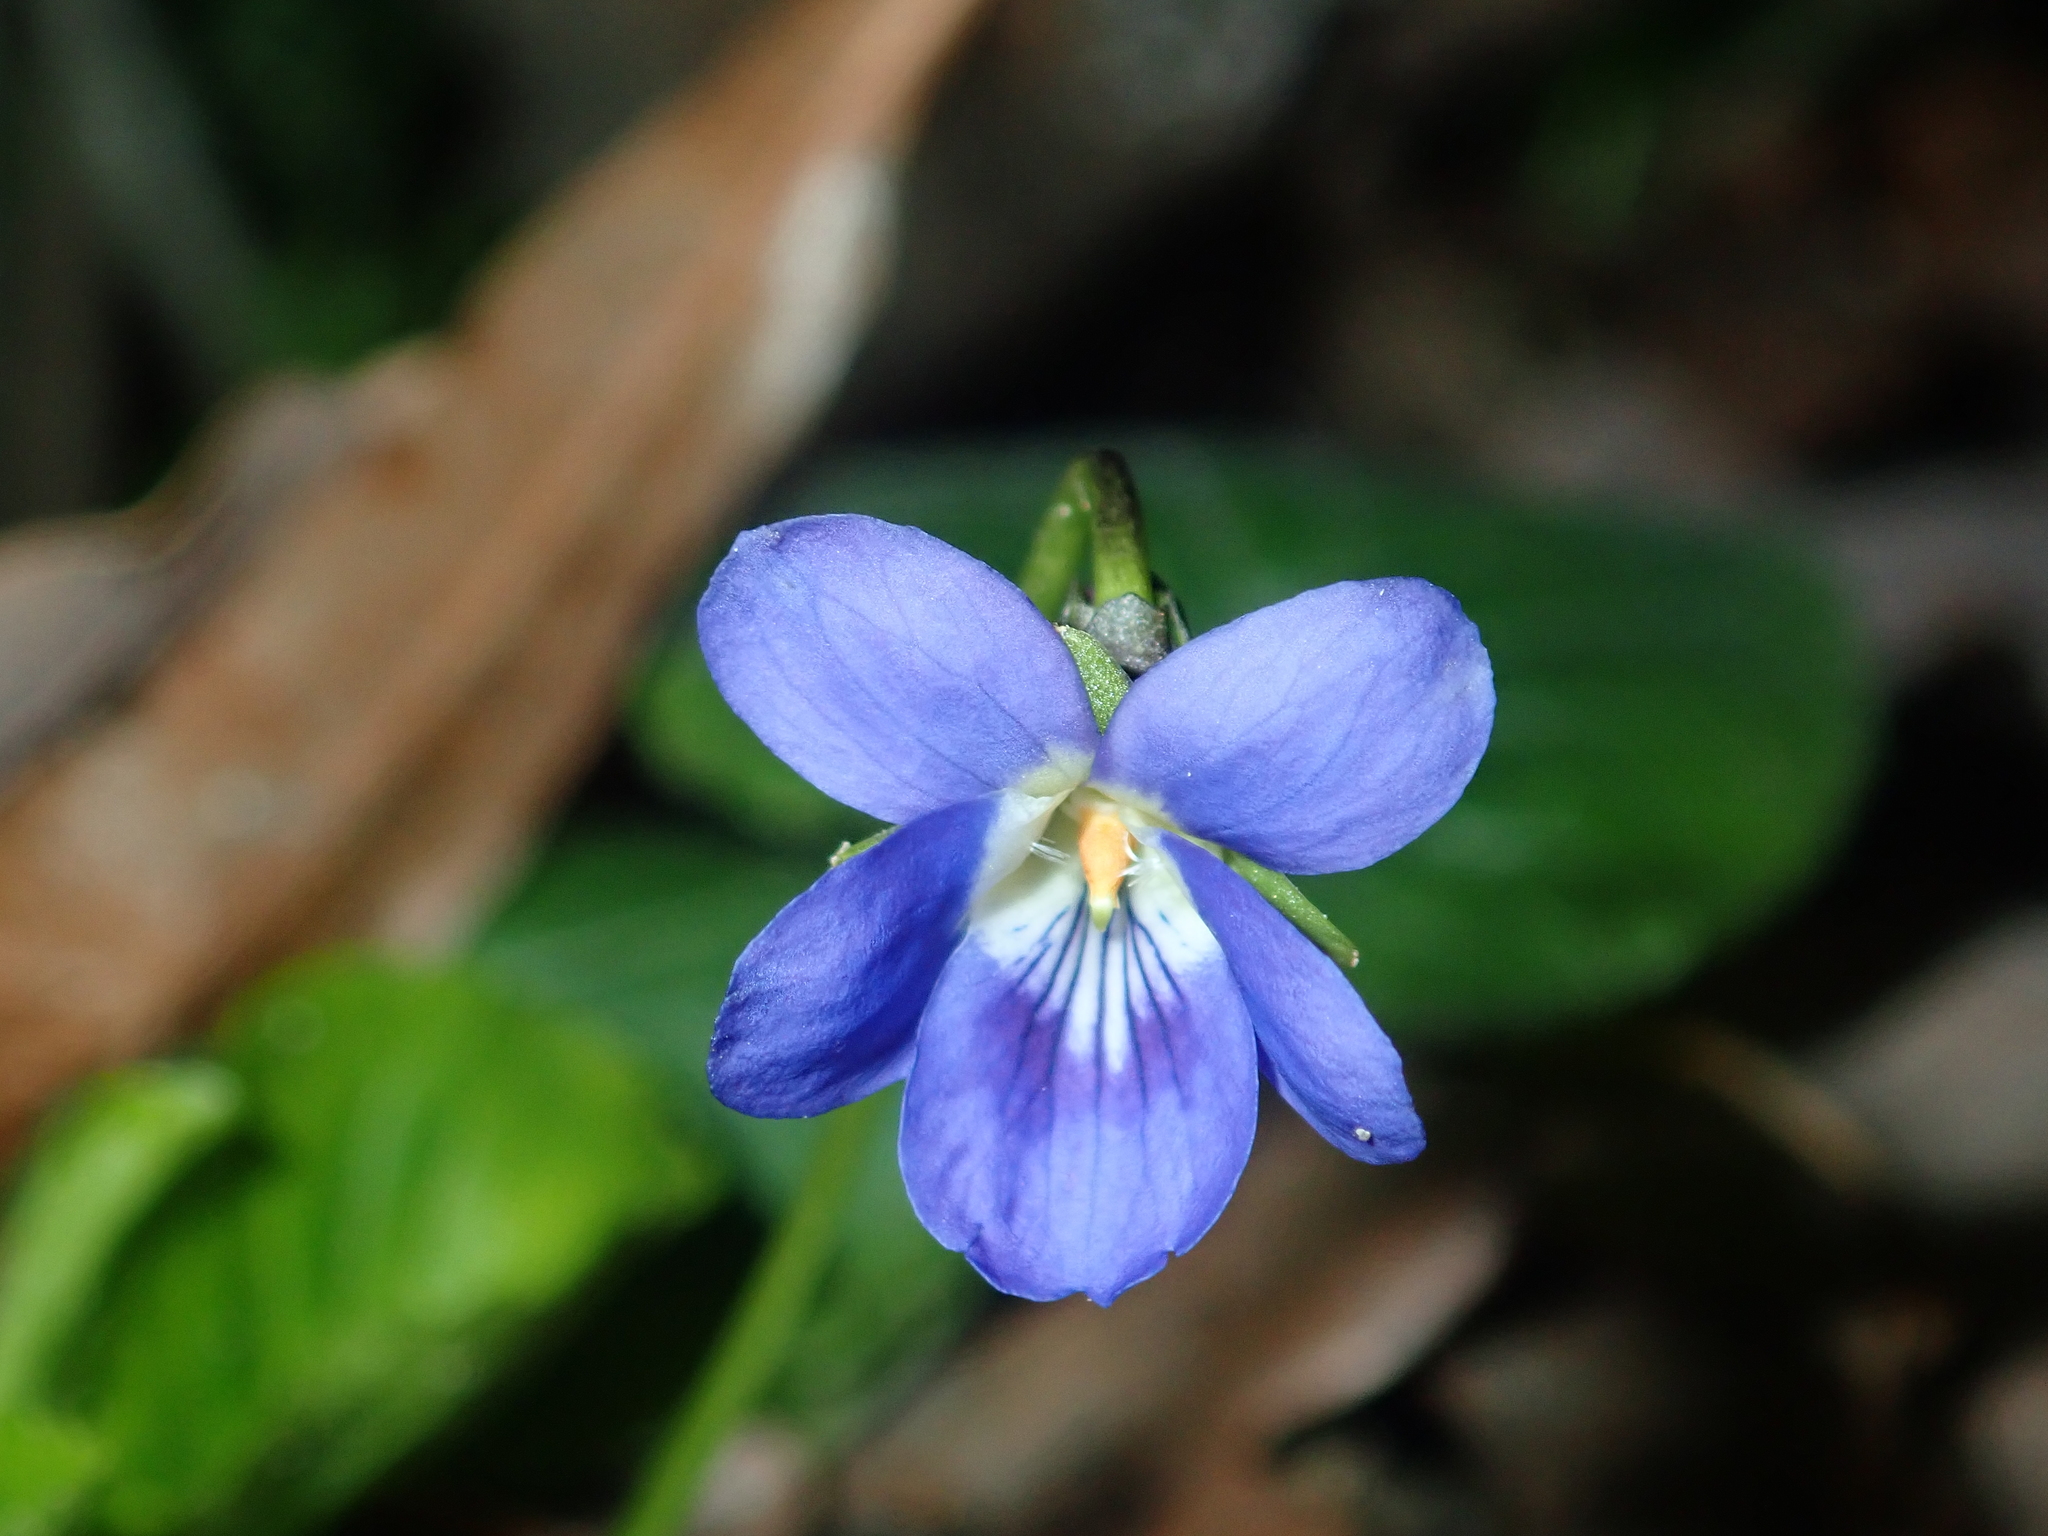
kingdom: Plantae
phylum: Tracheophyta
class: Magnoliopsida
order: Malpighiales
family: Violaceae
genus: Viola
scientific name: Viola odorata
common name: Sweet violet
